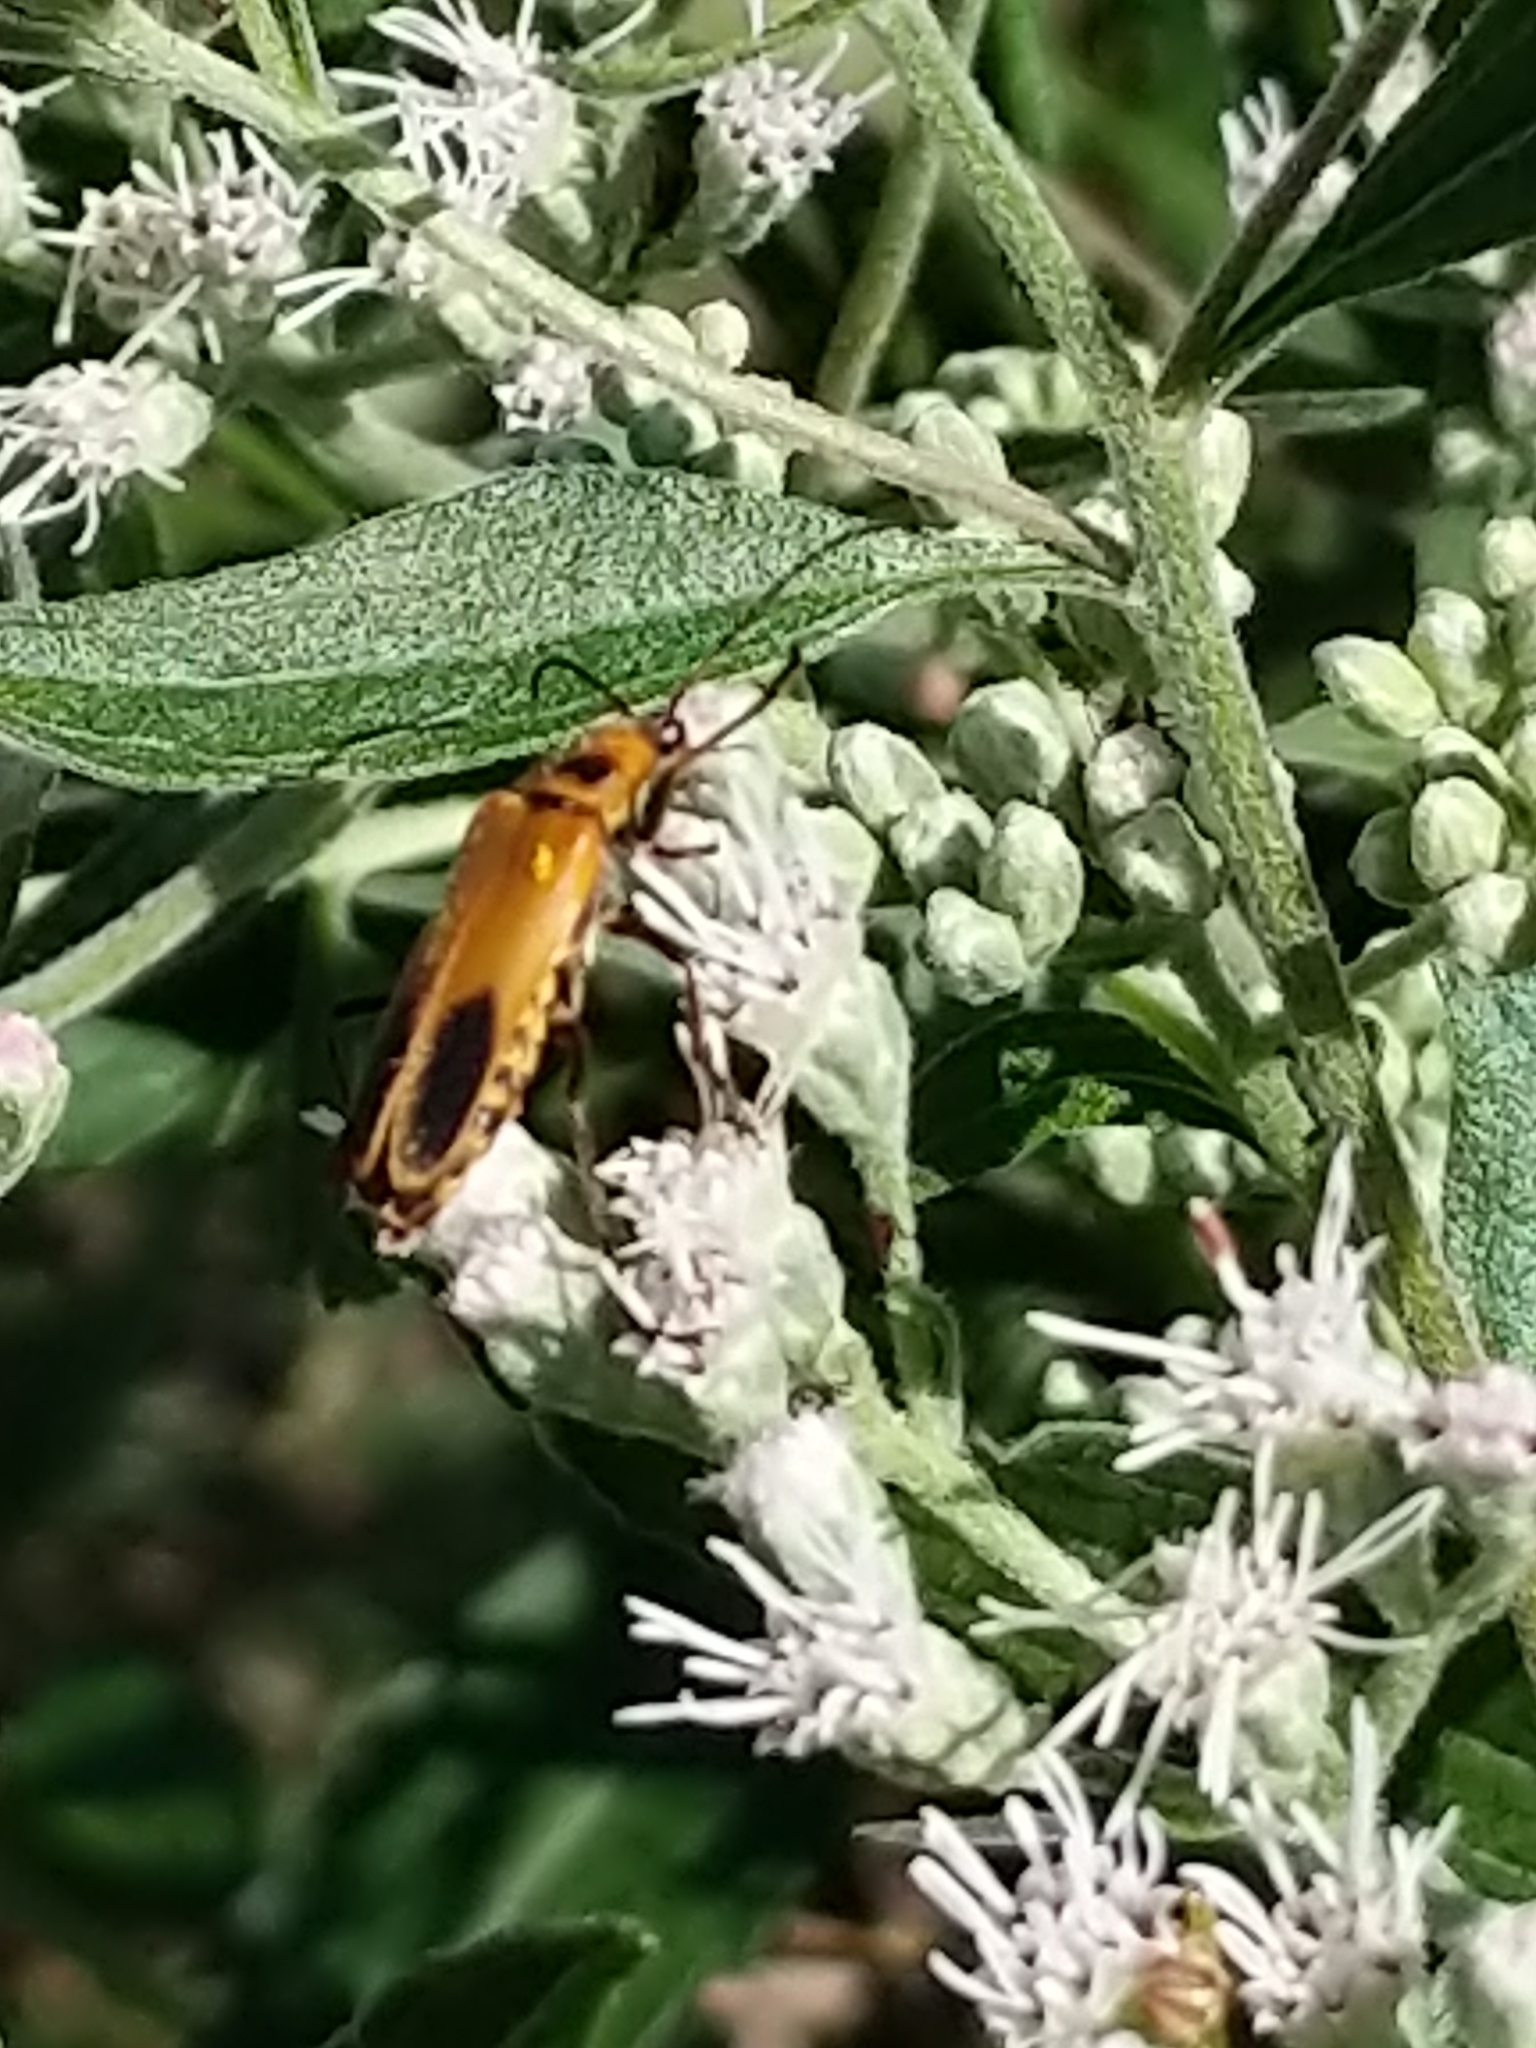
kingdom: Animalia
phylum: Arthropoda
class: Insecta
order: Coleoptera
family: Cantharidae
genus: Chauliognathus
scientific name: Chauliognathus pensylvanicus
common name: Goldenrod soldier beetle
